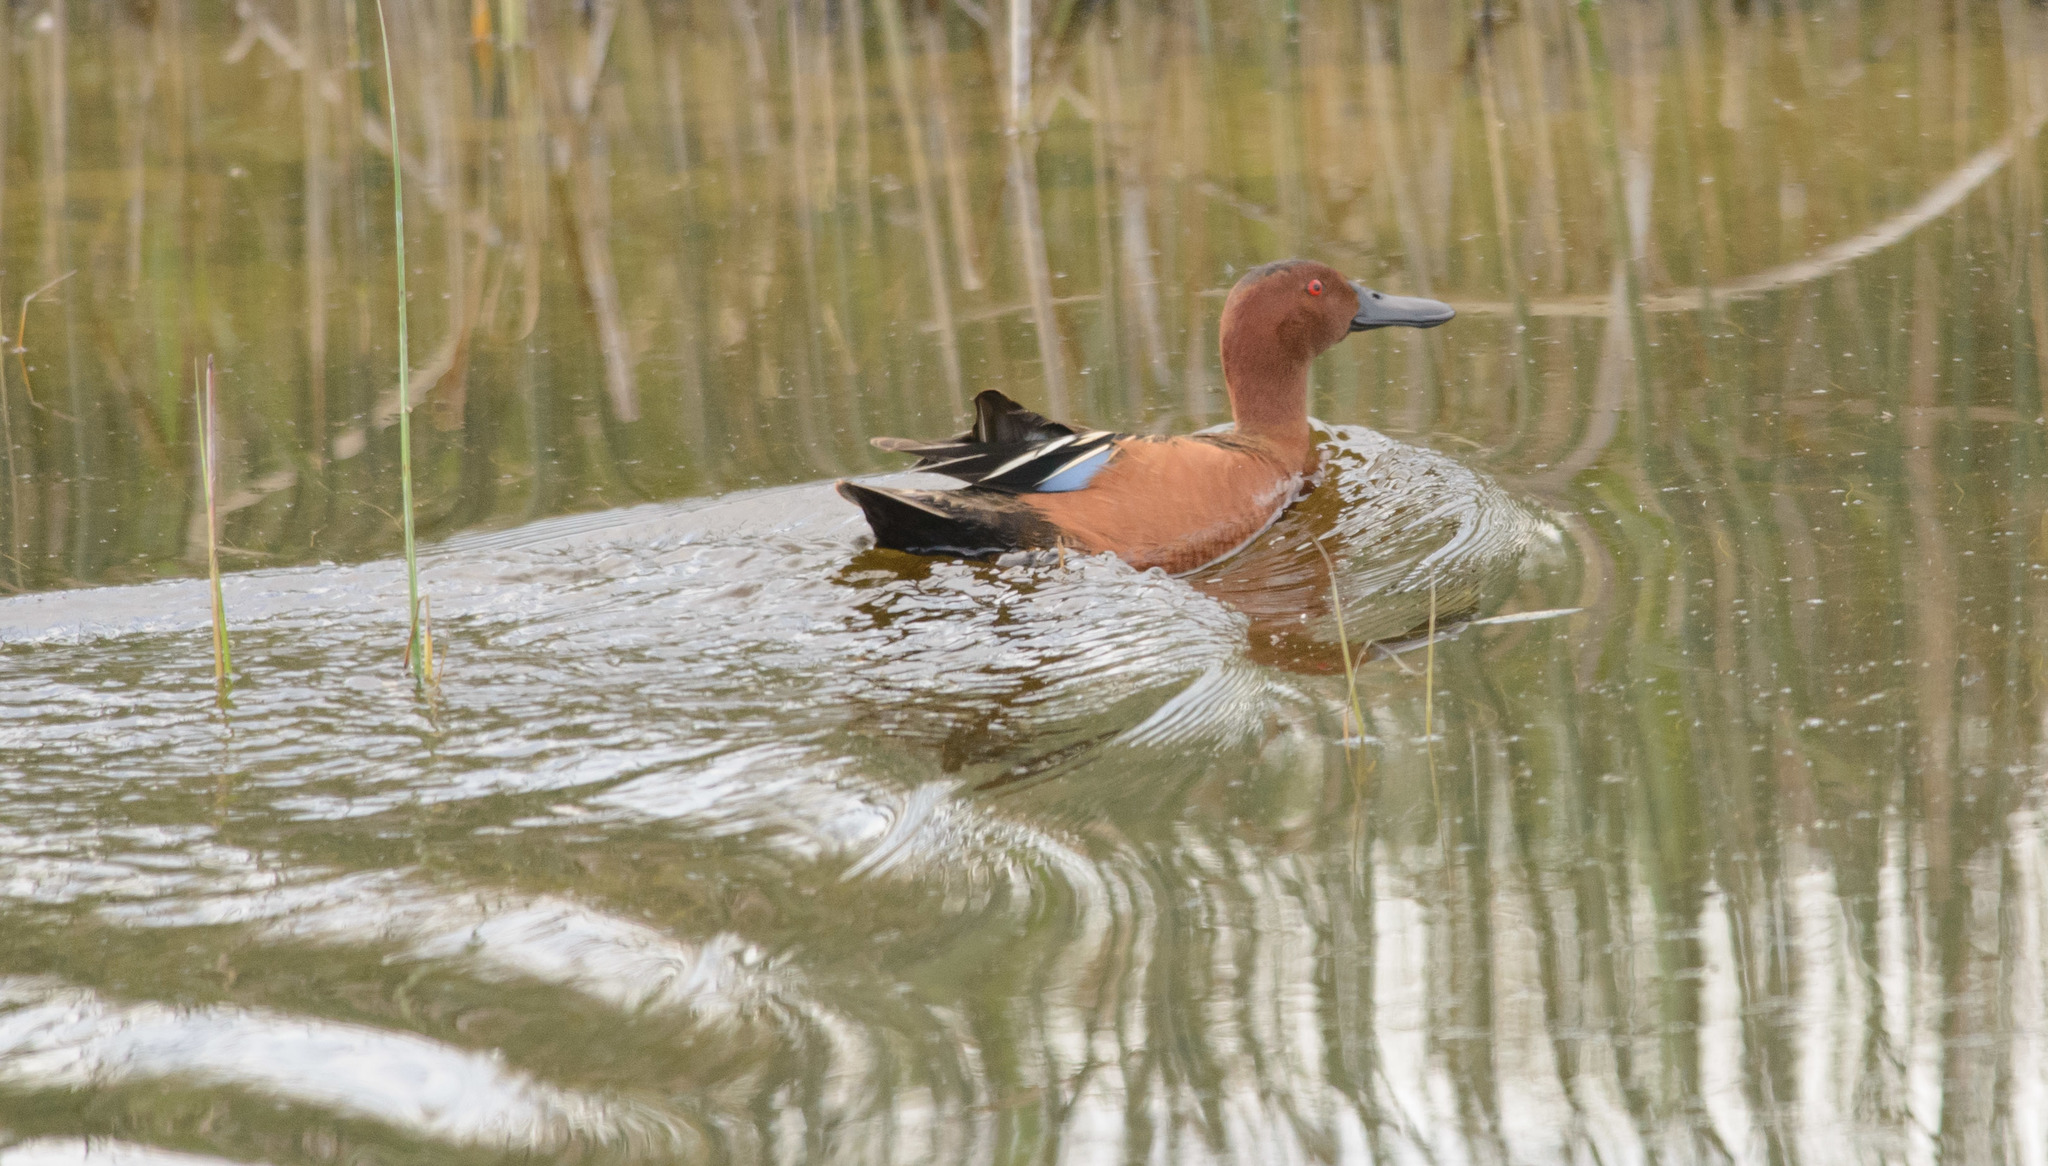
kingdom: Animalia
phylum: Chordata
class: Aves
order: Anseriformes
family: Anatidae
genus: Spatula
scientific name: Spatula cyanoptera
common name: Cinnamon teal
